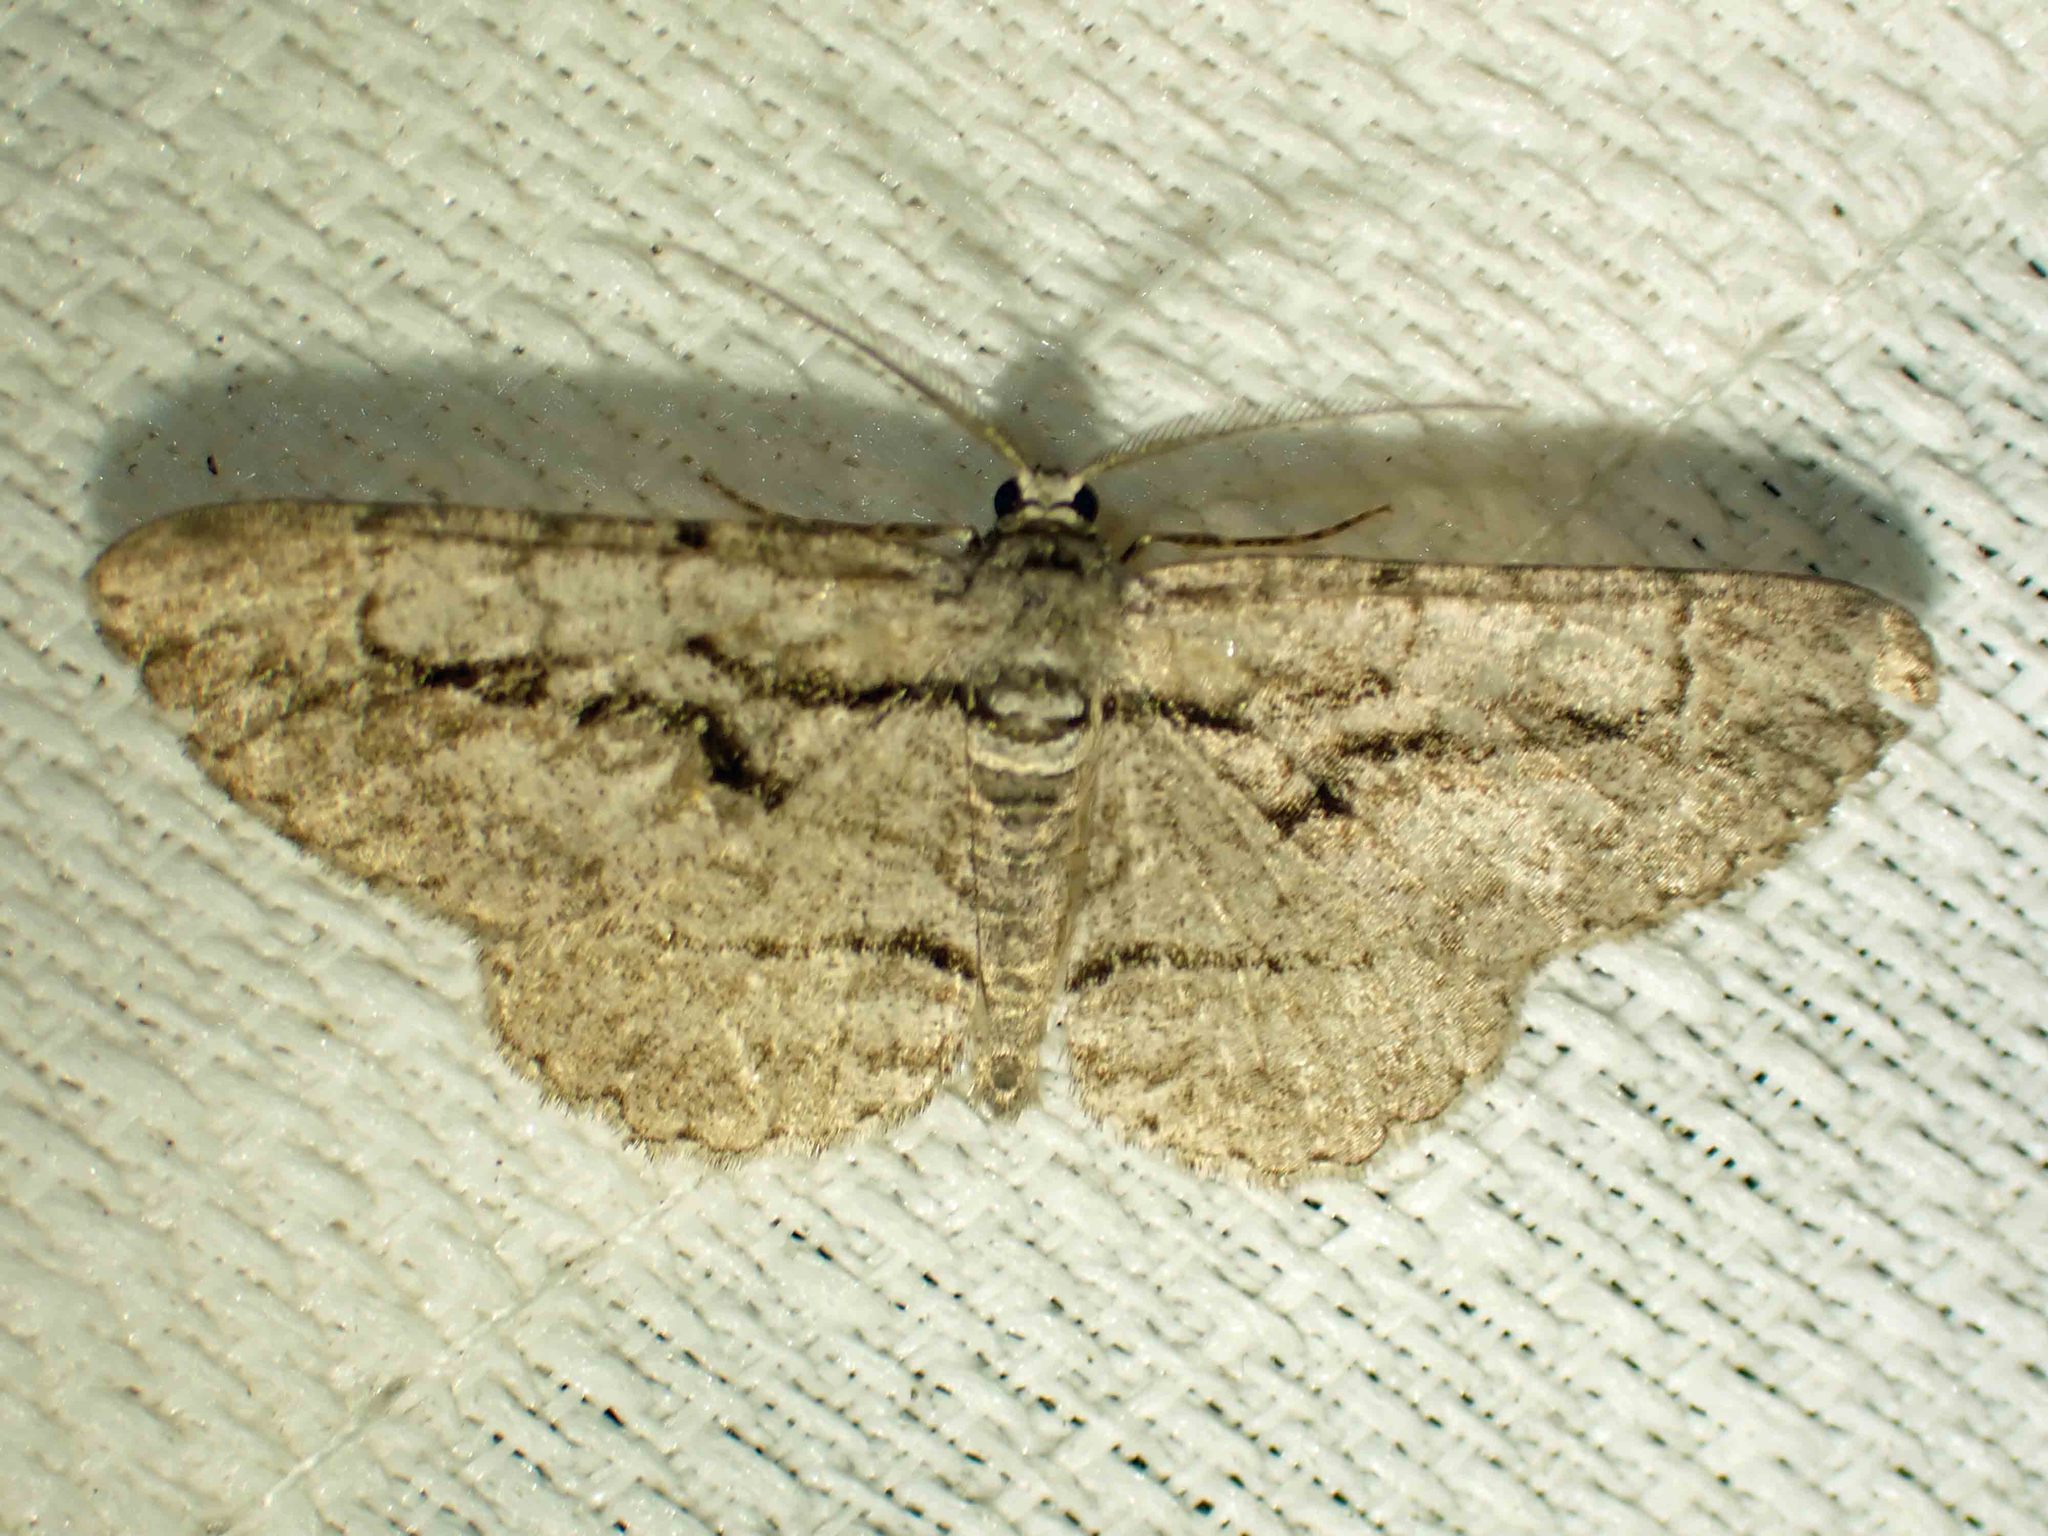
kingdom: Animalia
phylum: Arthropoda
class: Insecta
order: Lepidoptera
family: Geometridae
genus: Anavitrinella
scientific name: Anavitrinella pampinaria
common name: Common gray
